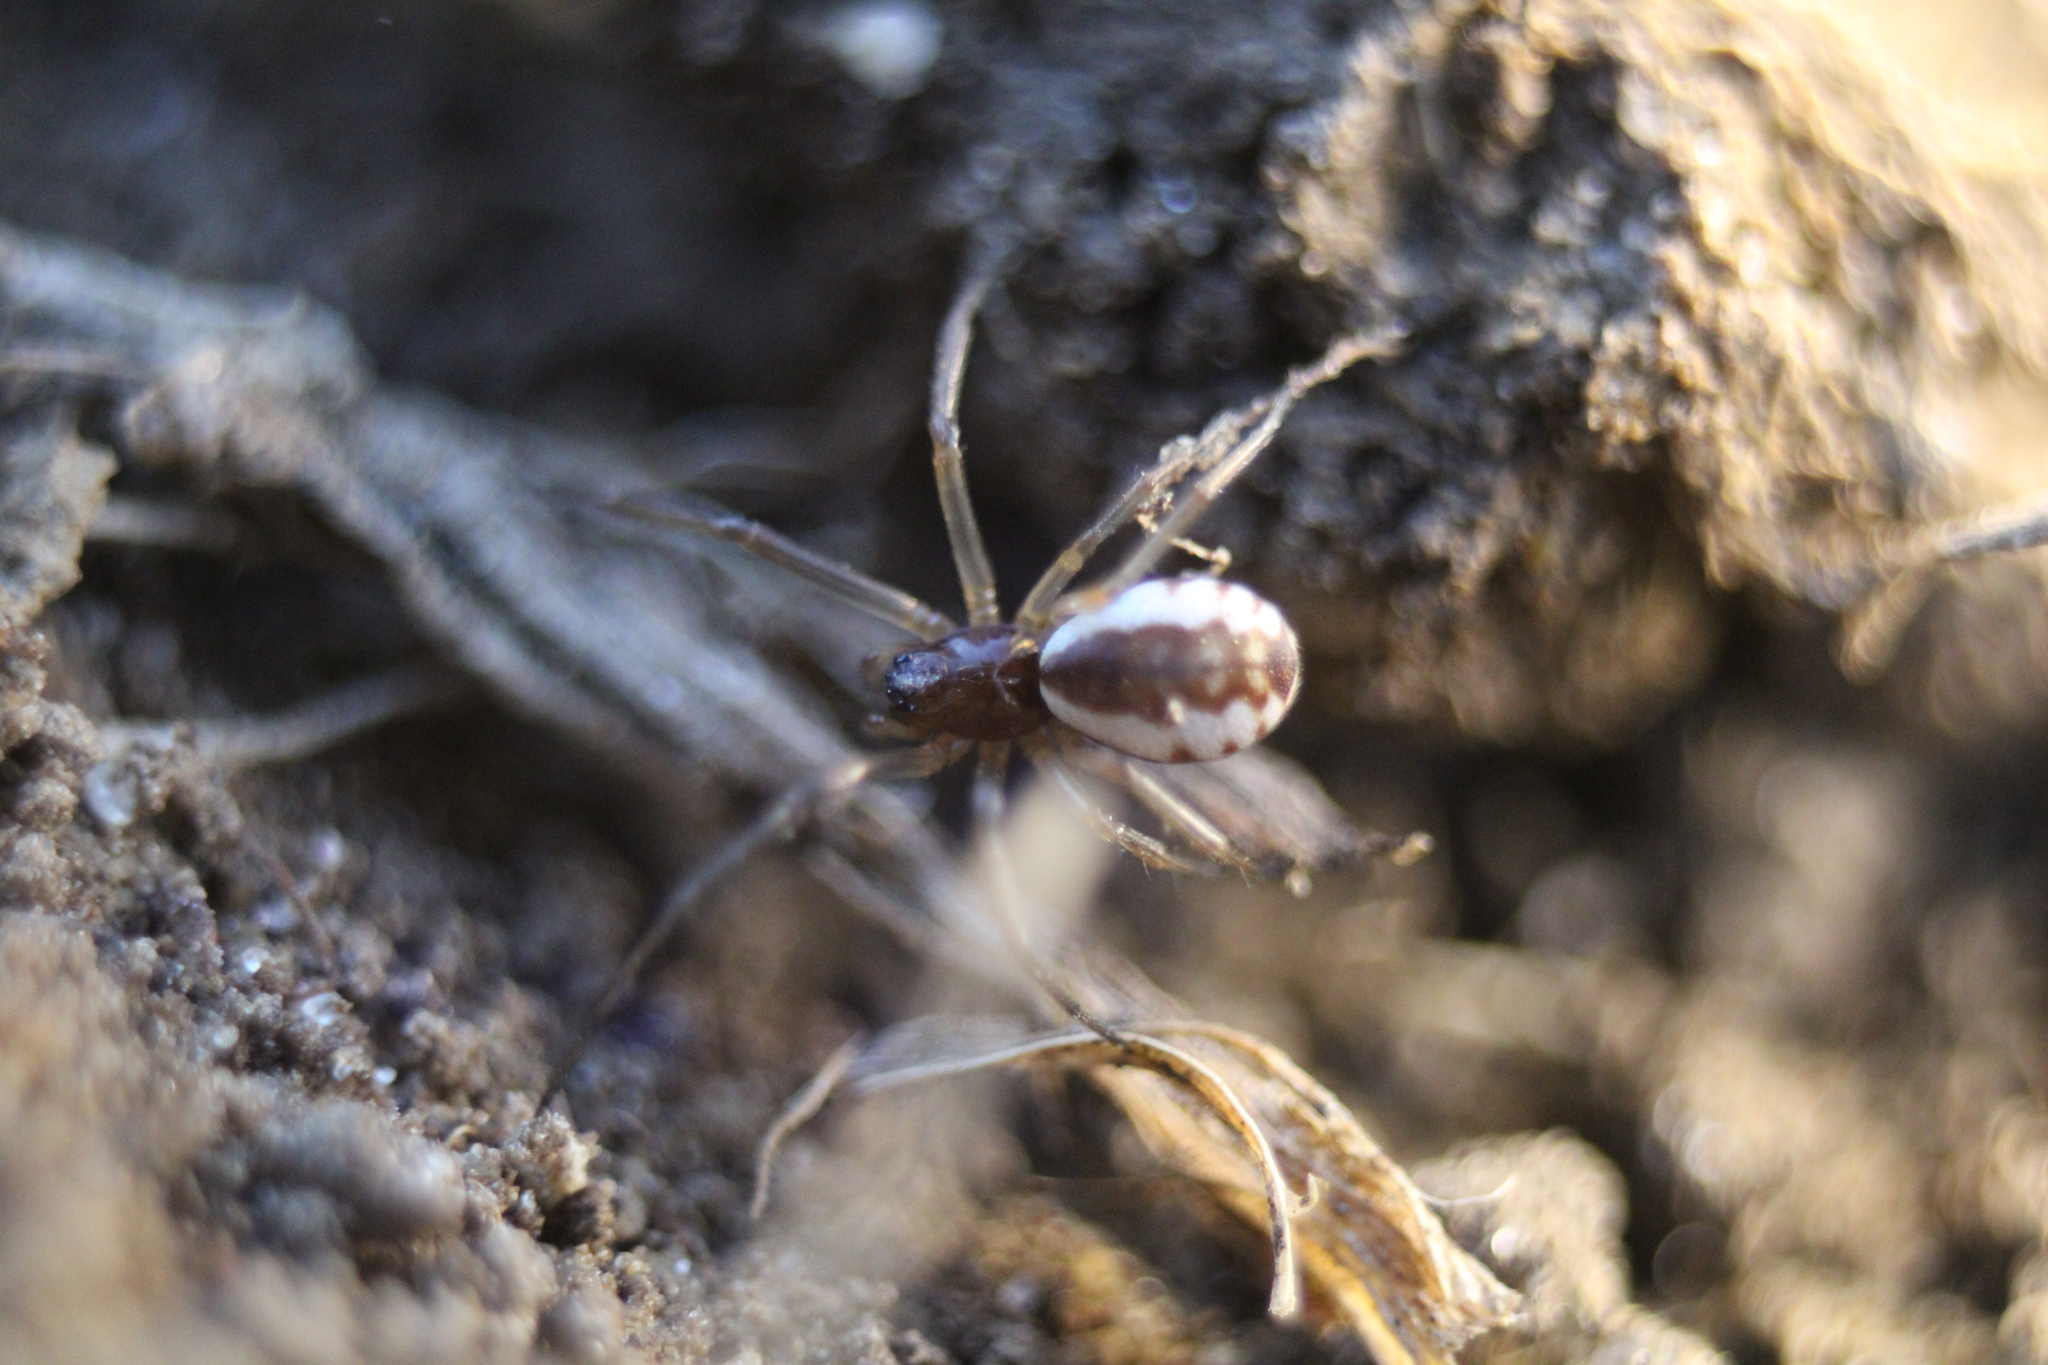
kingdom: Animalia
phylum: Arthropoda
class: Arachnida
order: Araneae
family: Linyphiidae
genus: Frontinella
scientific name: Frontinella pyramitela
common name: Bowl-and-doily spider
